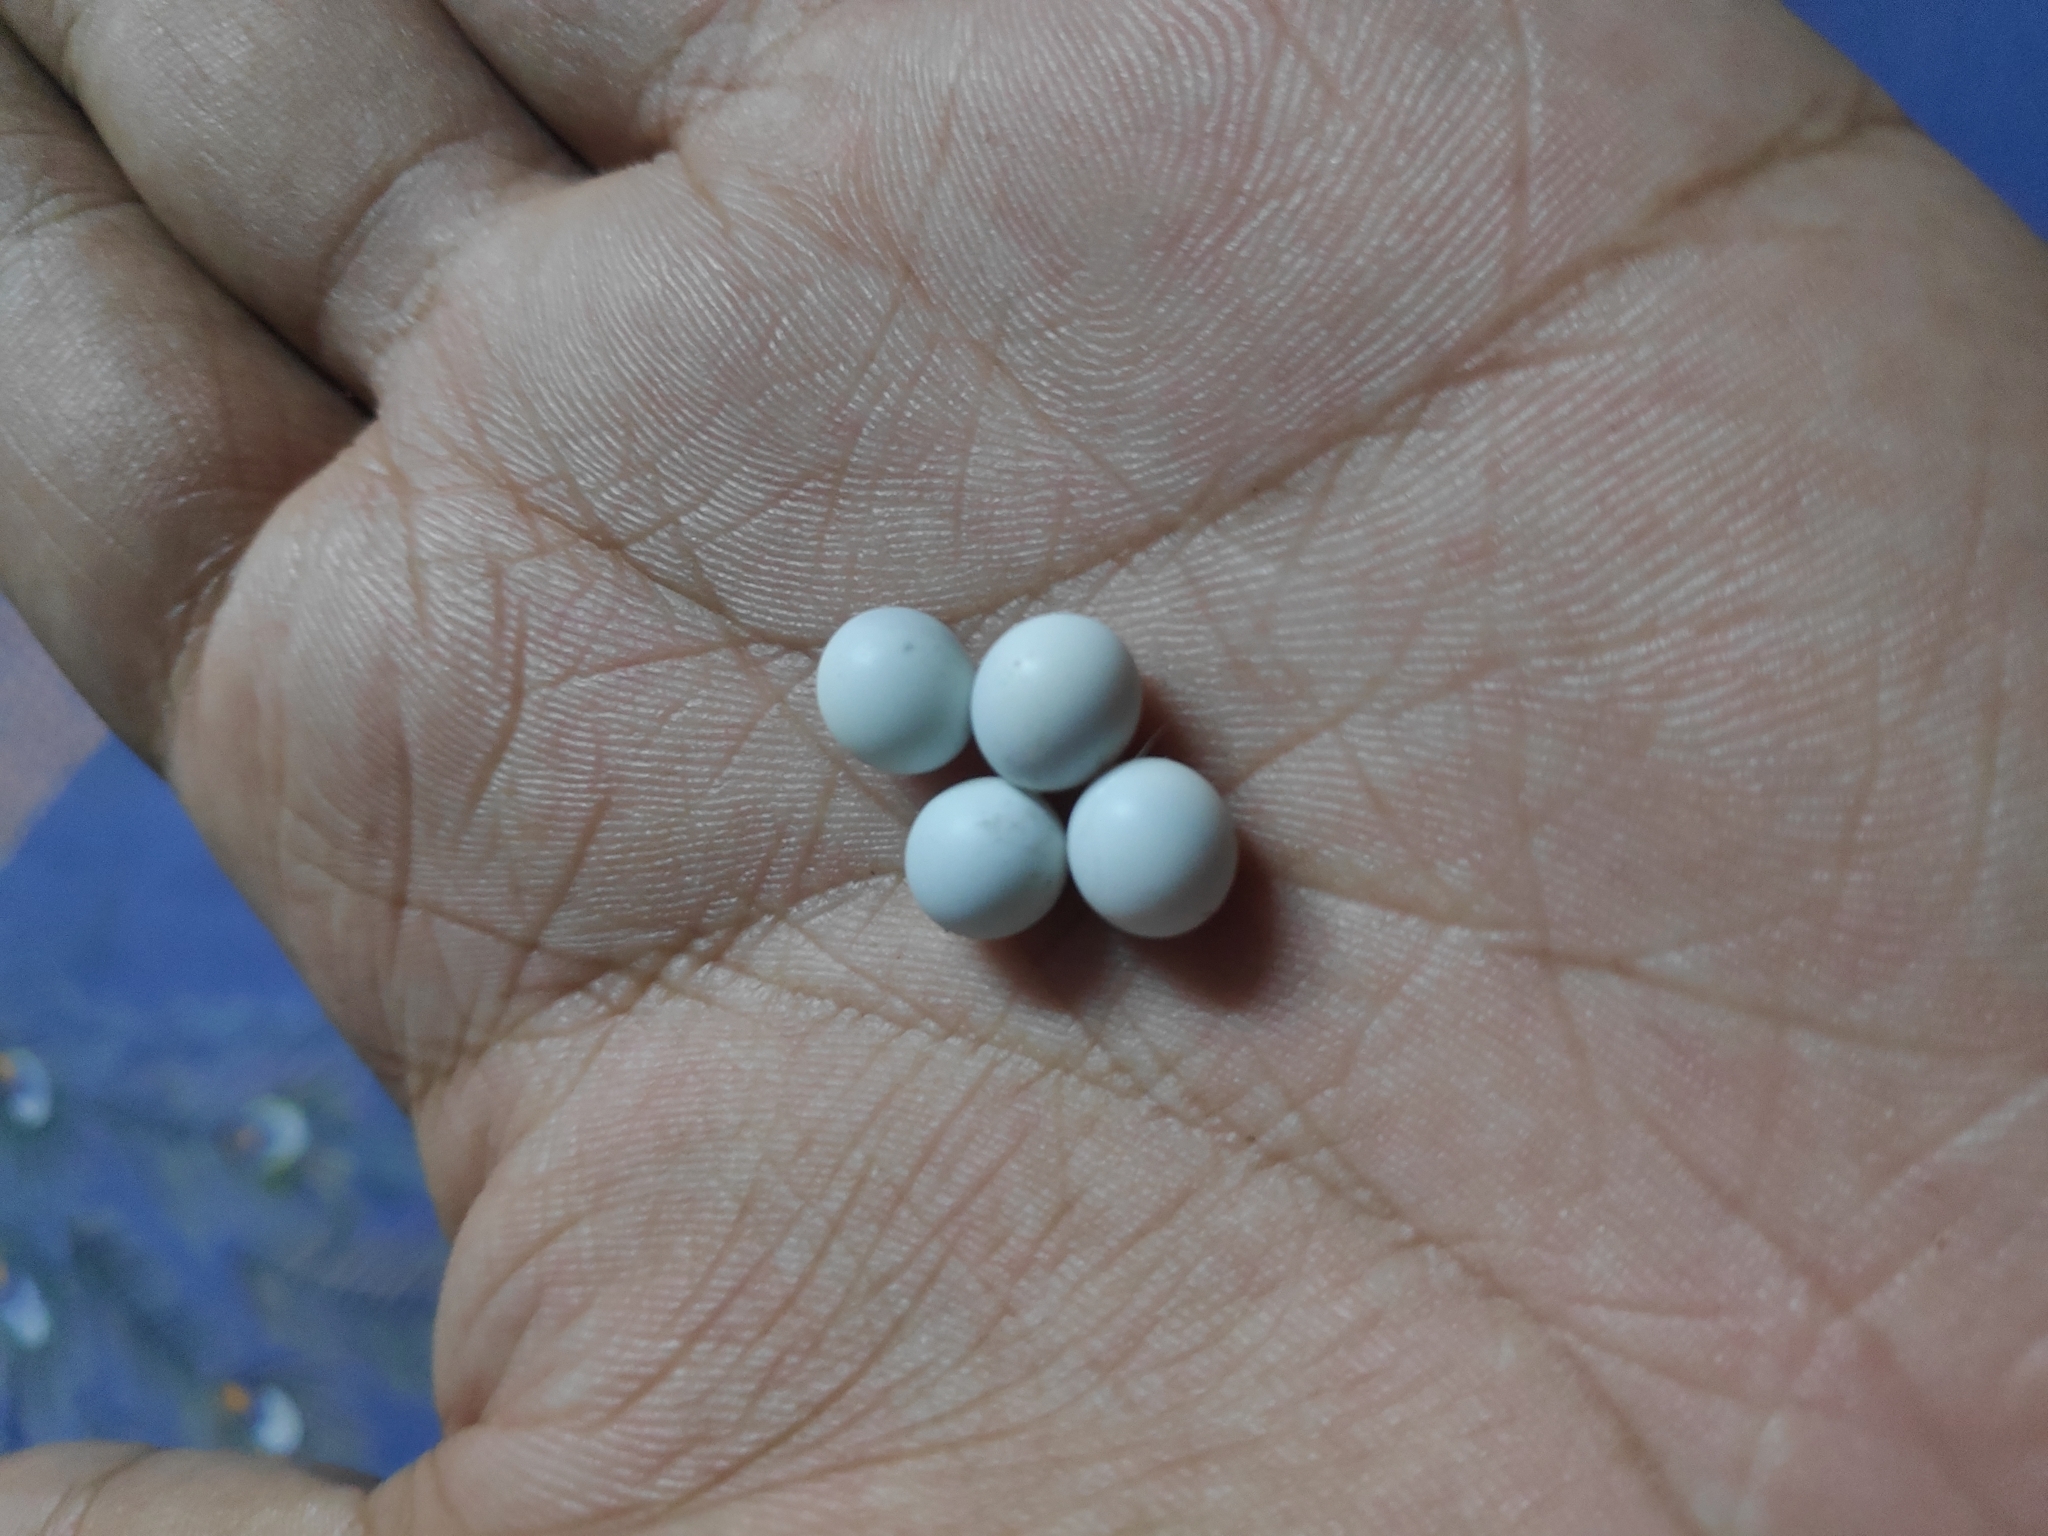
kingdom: Animalia
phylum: Chordata
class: Squamata
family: Gekkonidae
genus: Hemidactylus
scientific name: Hemidactylus frenatus
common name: Common house gecko
